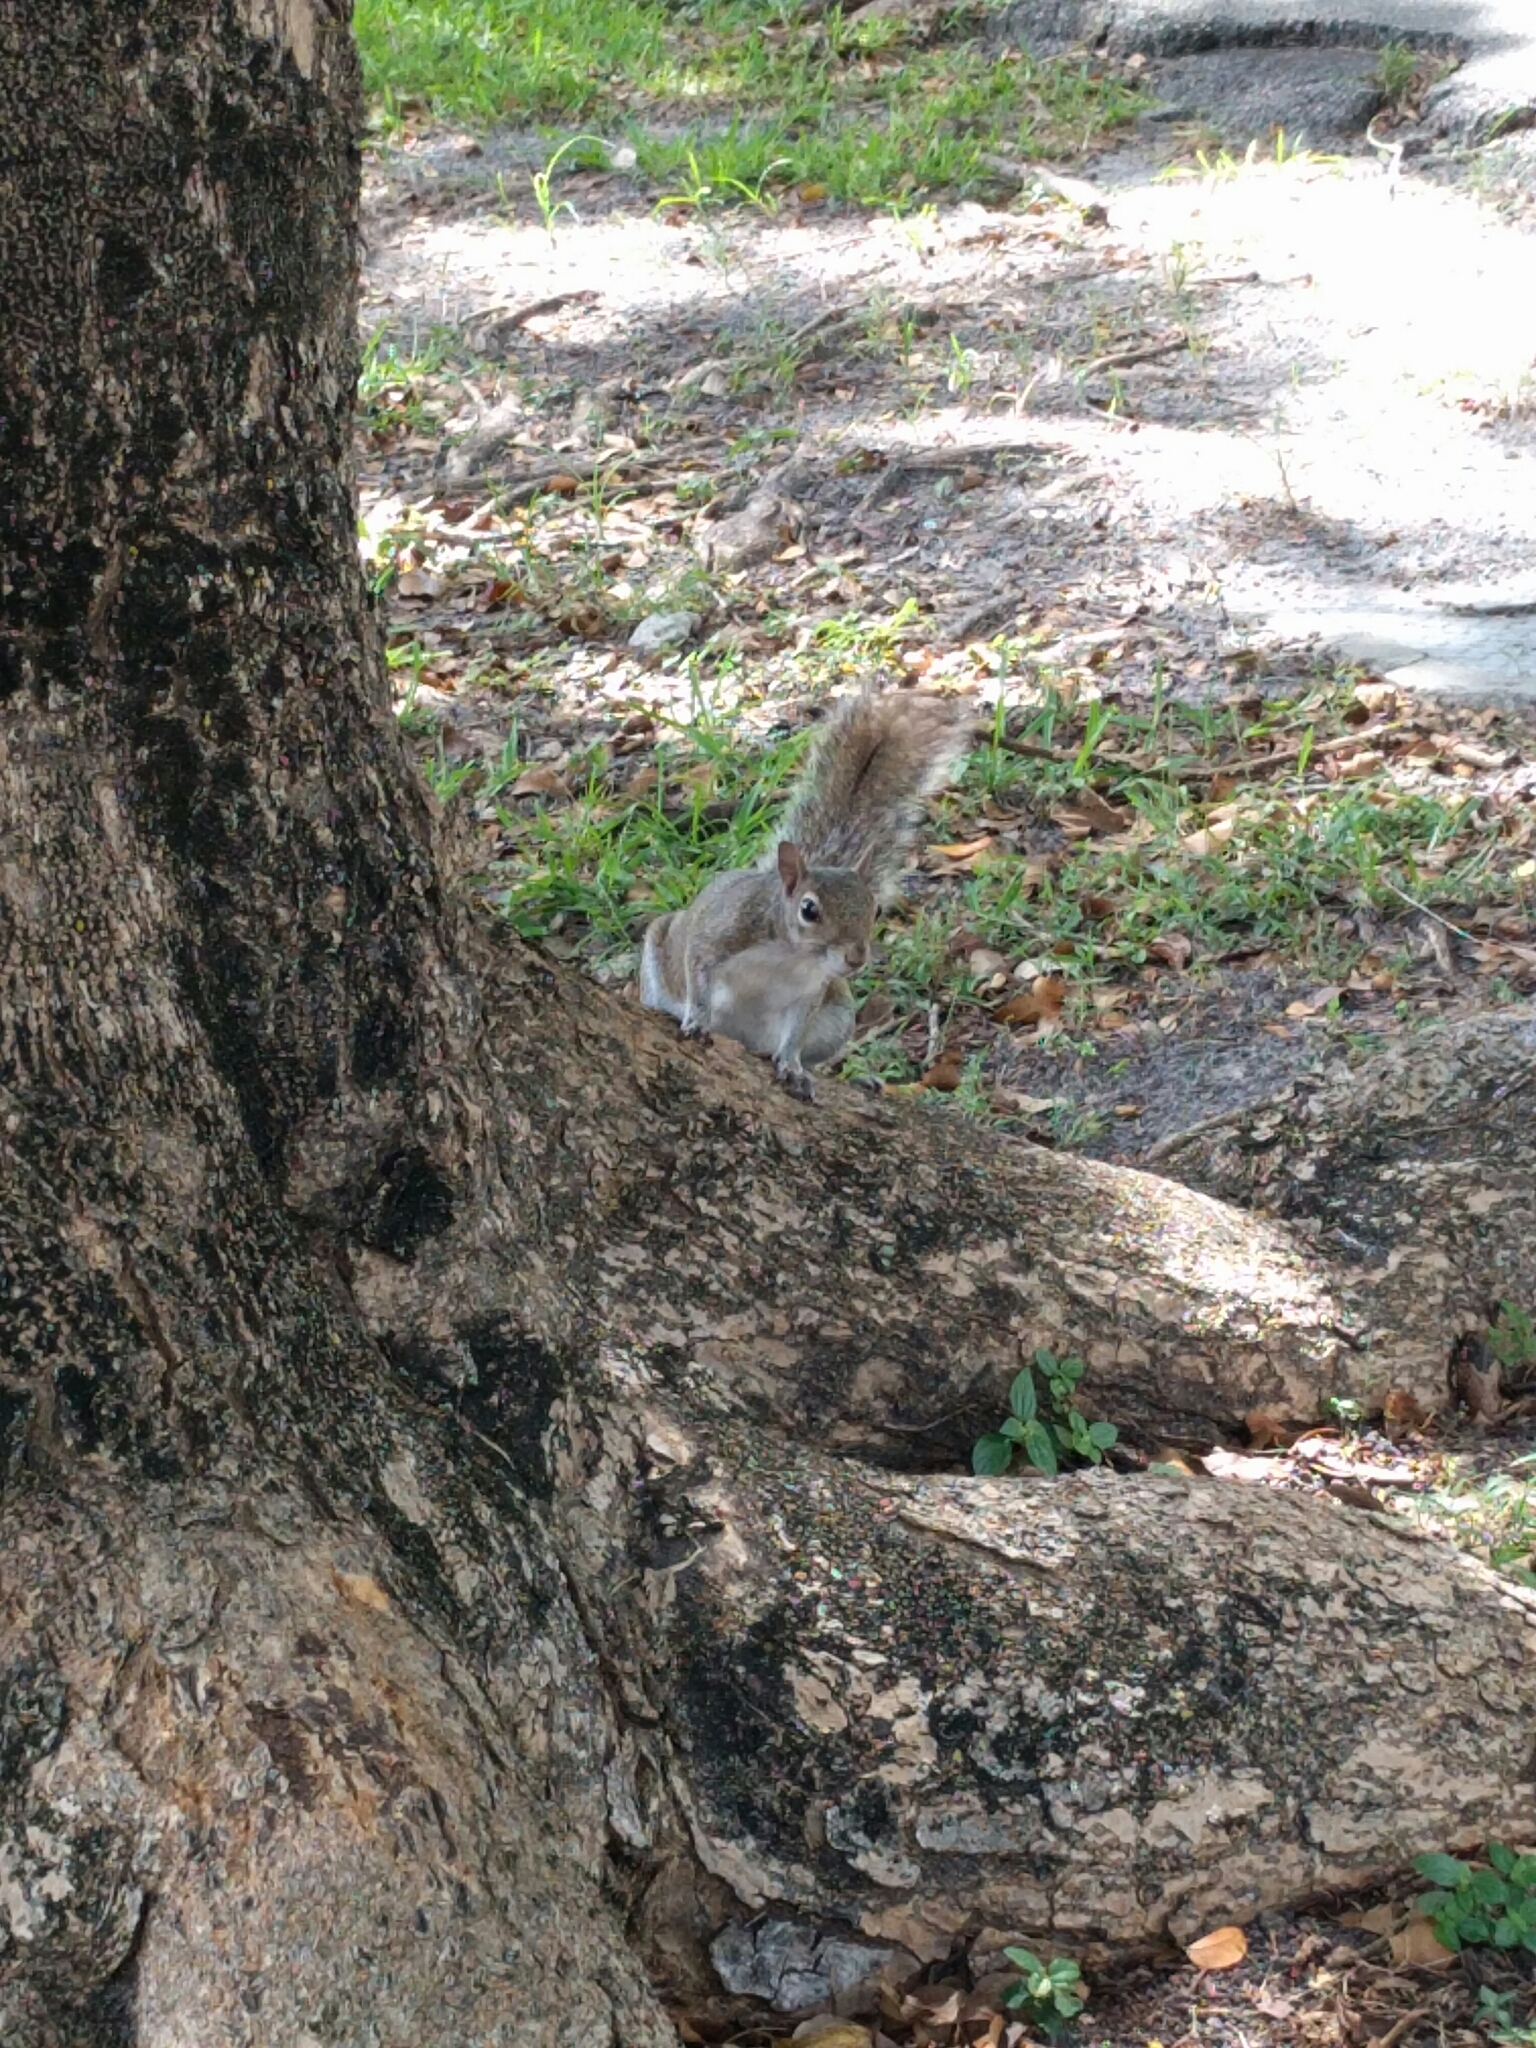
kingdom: Animalia
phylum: Chordata
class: Mammalia
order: Rodentia
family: Sciuridae
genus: Sciurus
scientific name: Sciurus carolinensis
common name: Eastern gray squirrel
